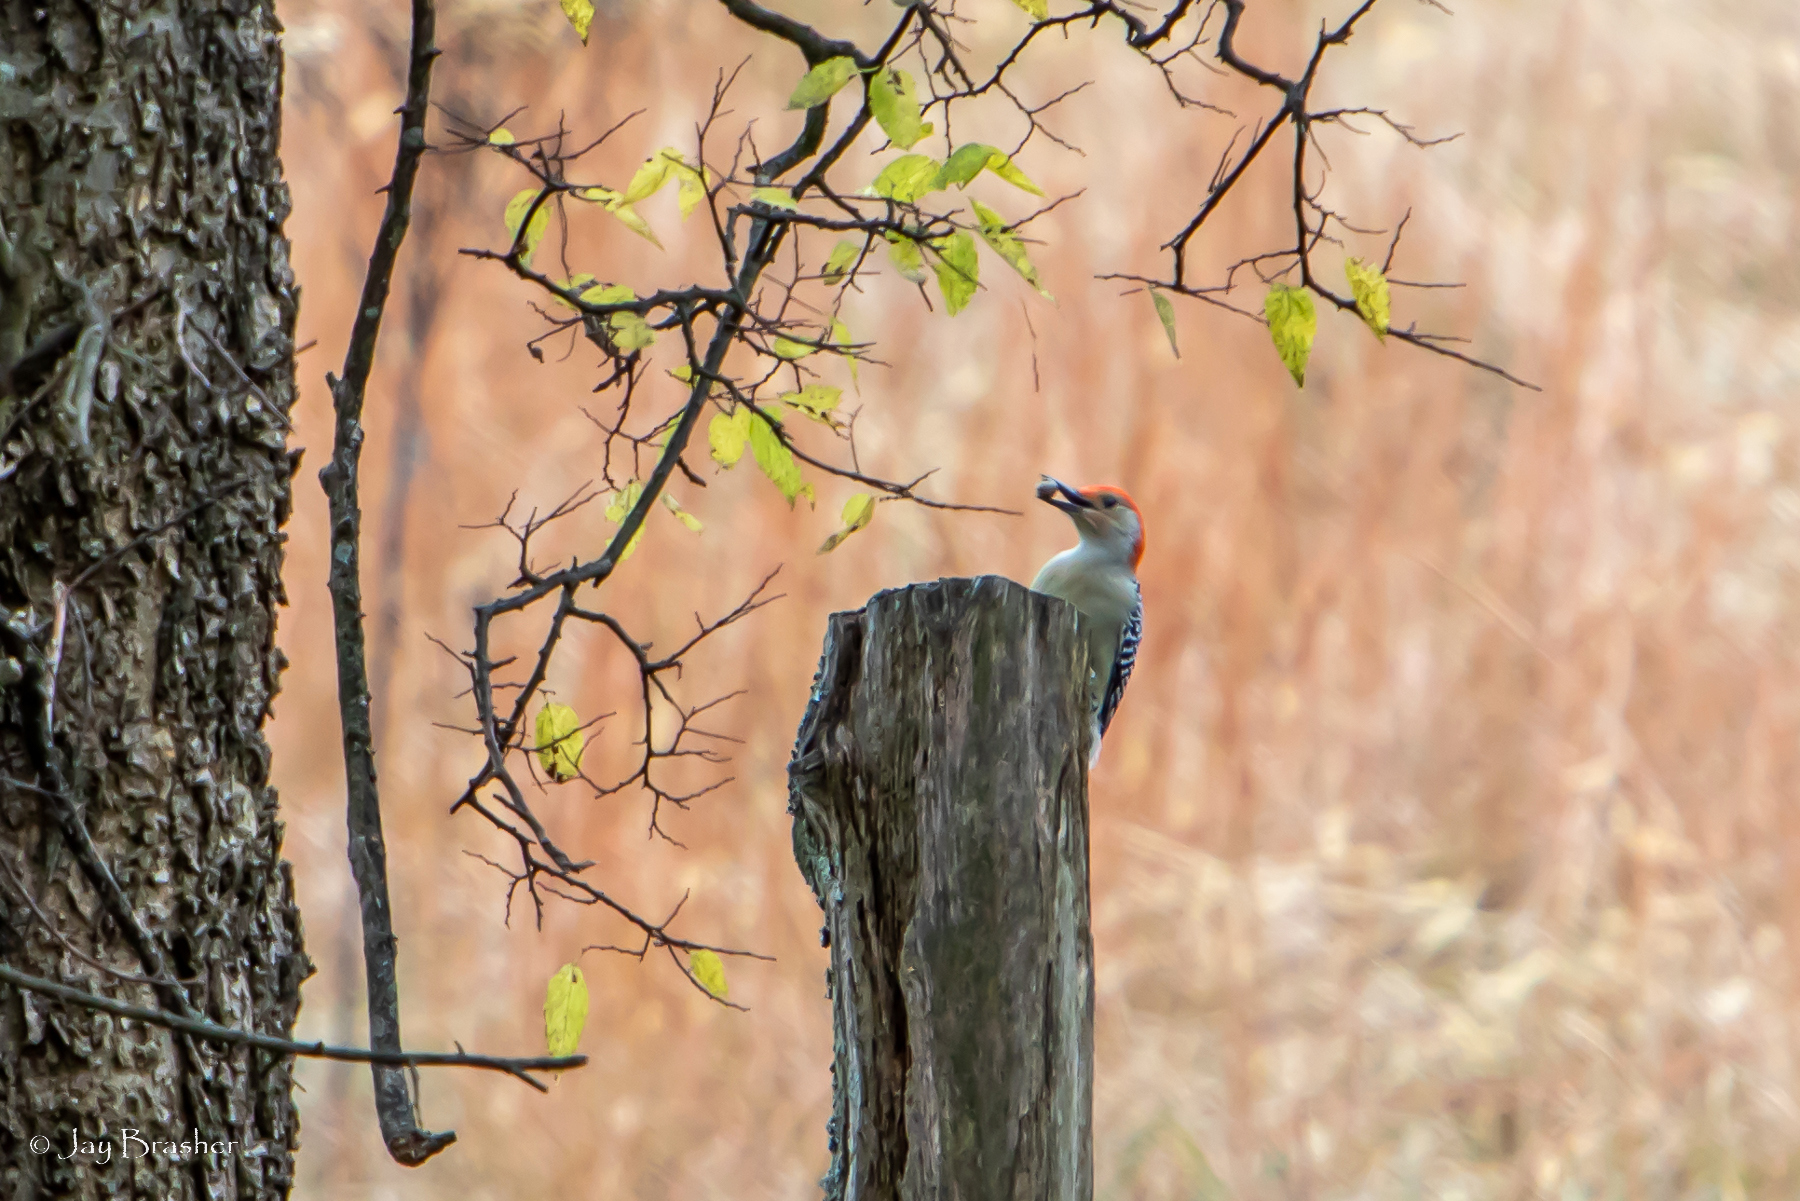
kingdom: Animalia
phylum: Chordata
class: Aves
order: Piciformes
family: Picidae
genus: Melanerpes
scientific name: Melanerpes carolinus
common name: Red-bellied woodpecker
